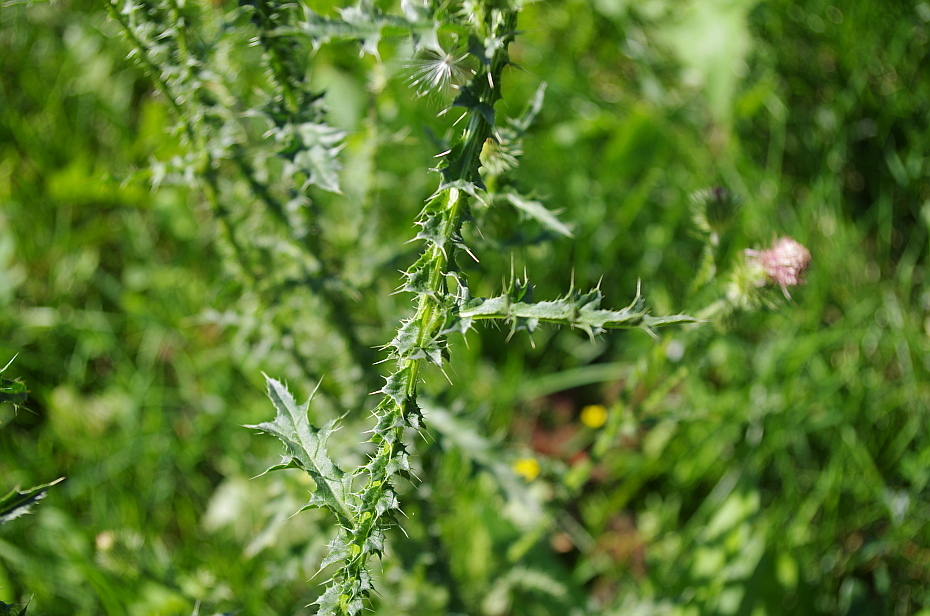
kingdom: Plantae
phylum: Tracheophyta
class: Magnoliopsida
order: Asterales
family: Asteraceae
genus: Carduus
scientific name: Carduus crispus
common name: Welted thistle
